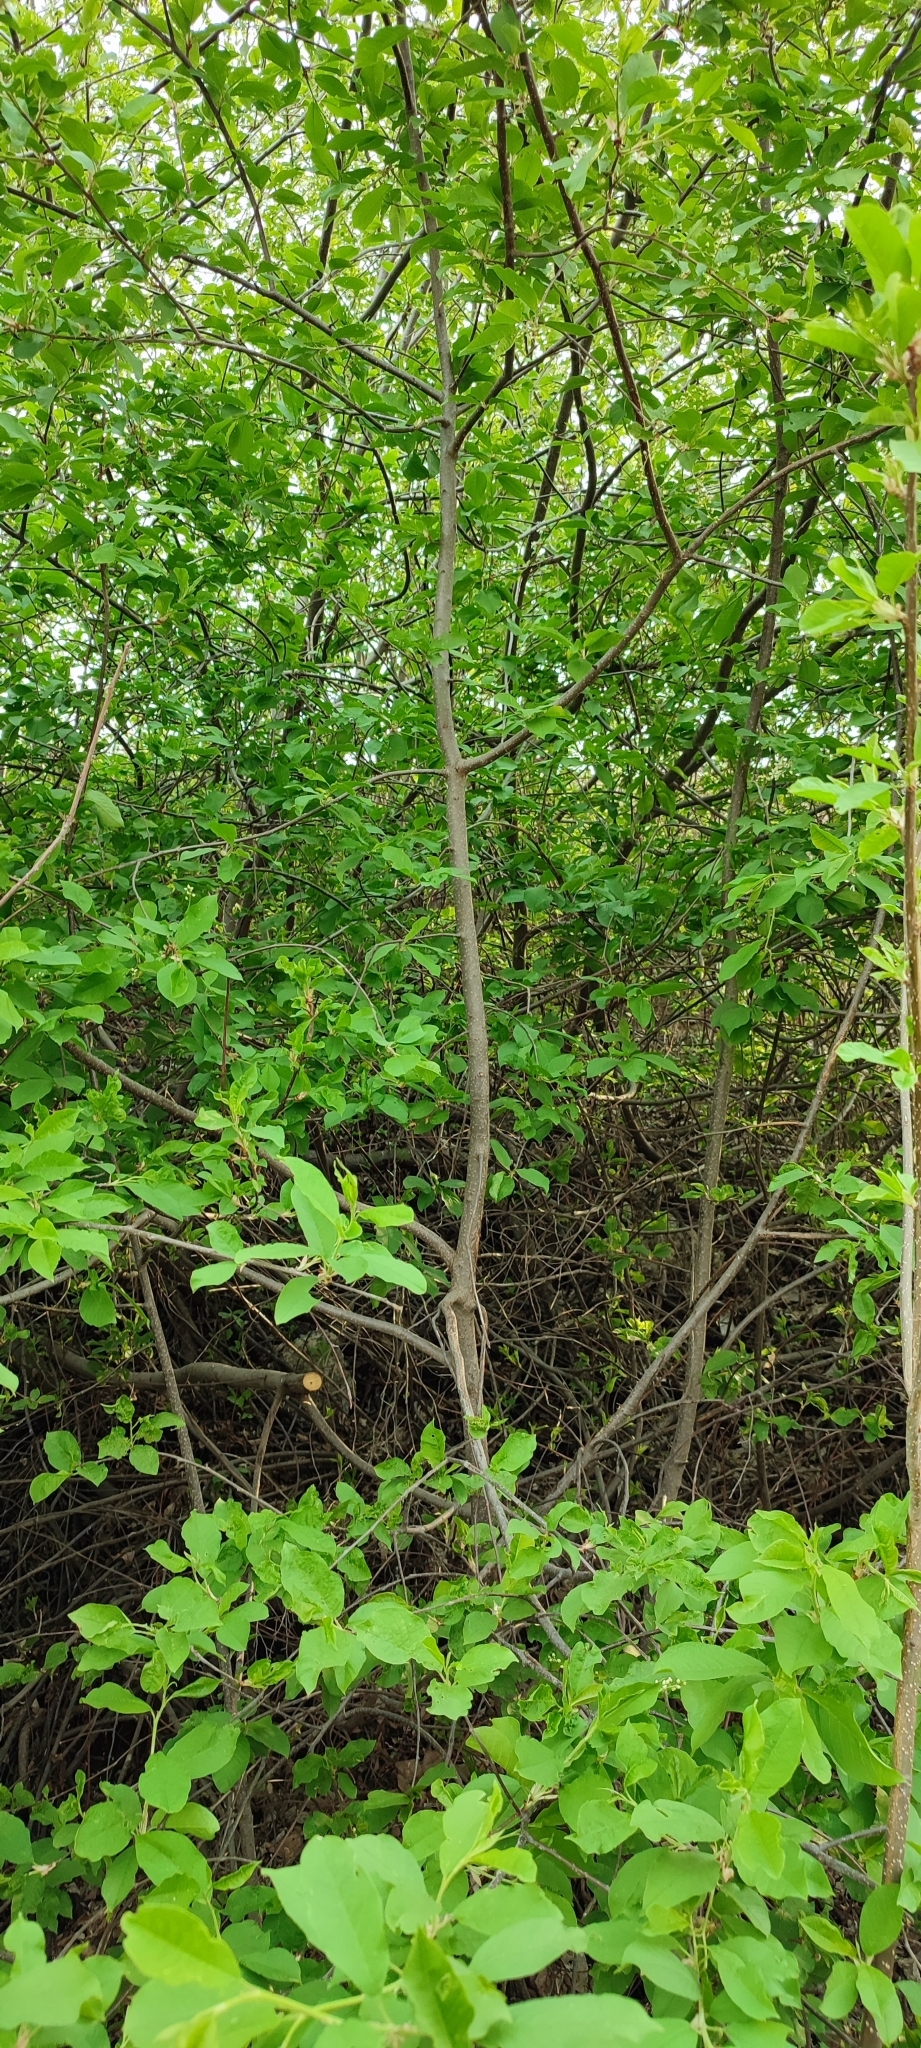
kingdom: Plantae
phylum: Tracheophyta
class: Magnoliopsida
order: Rosales
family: Rosaceae
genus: Prunus
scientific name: Prunus padus
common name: Bird cherry
